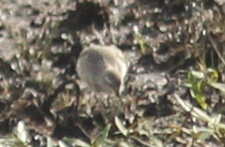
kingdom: Animalia
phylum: Chordata
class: Aves
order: Charadriiformes
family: Scolopacidae
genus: Calidris
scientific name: Calidris fuscicollis
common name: White-rumped sandpiper
